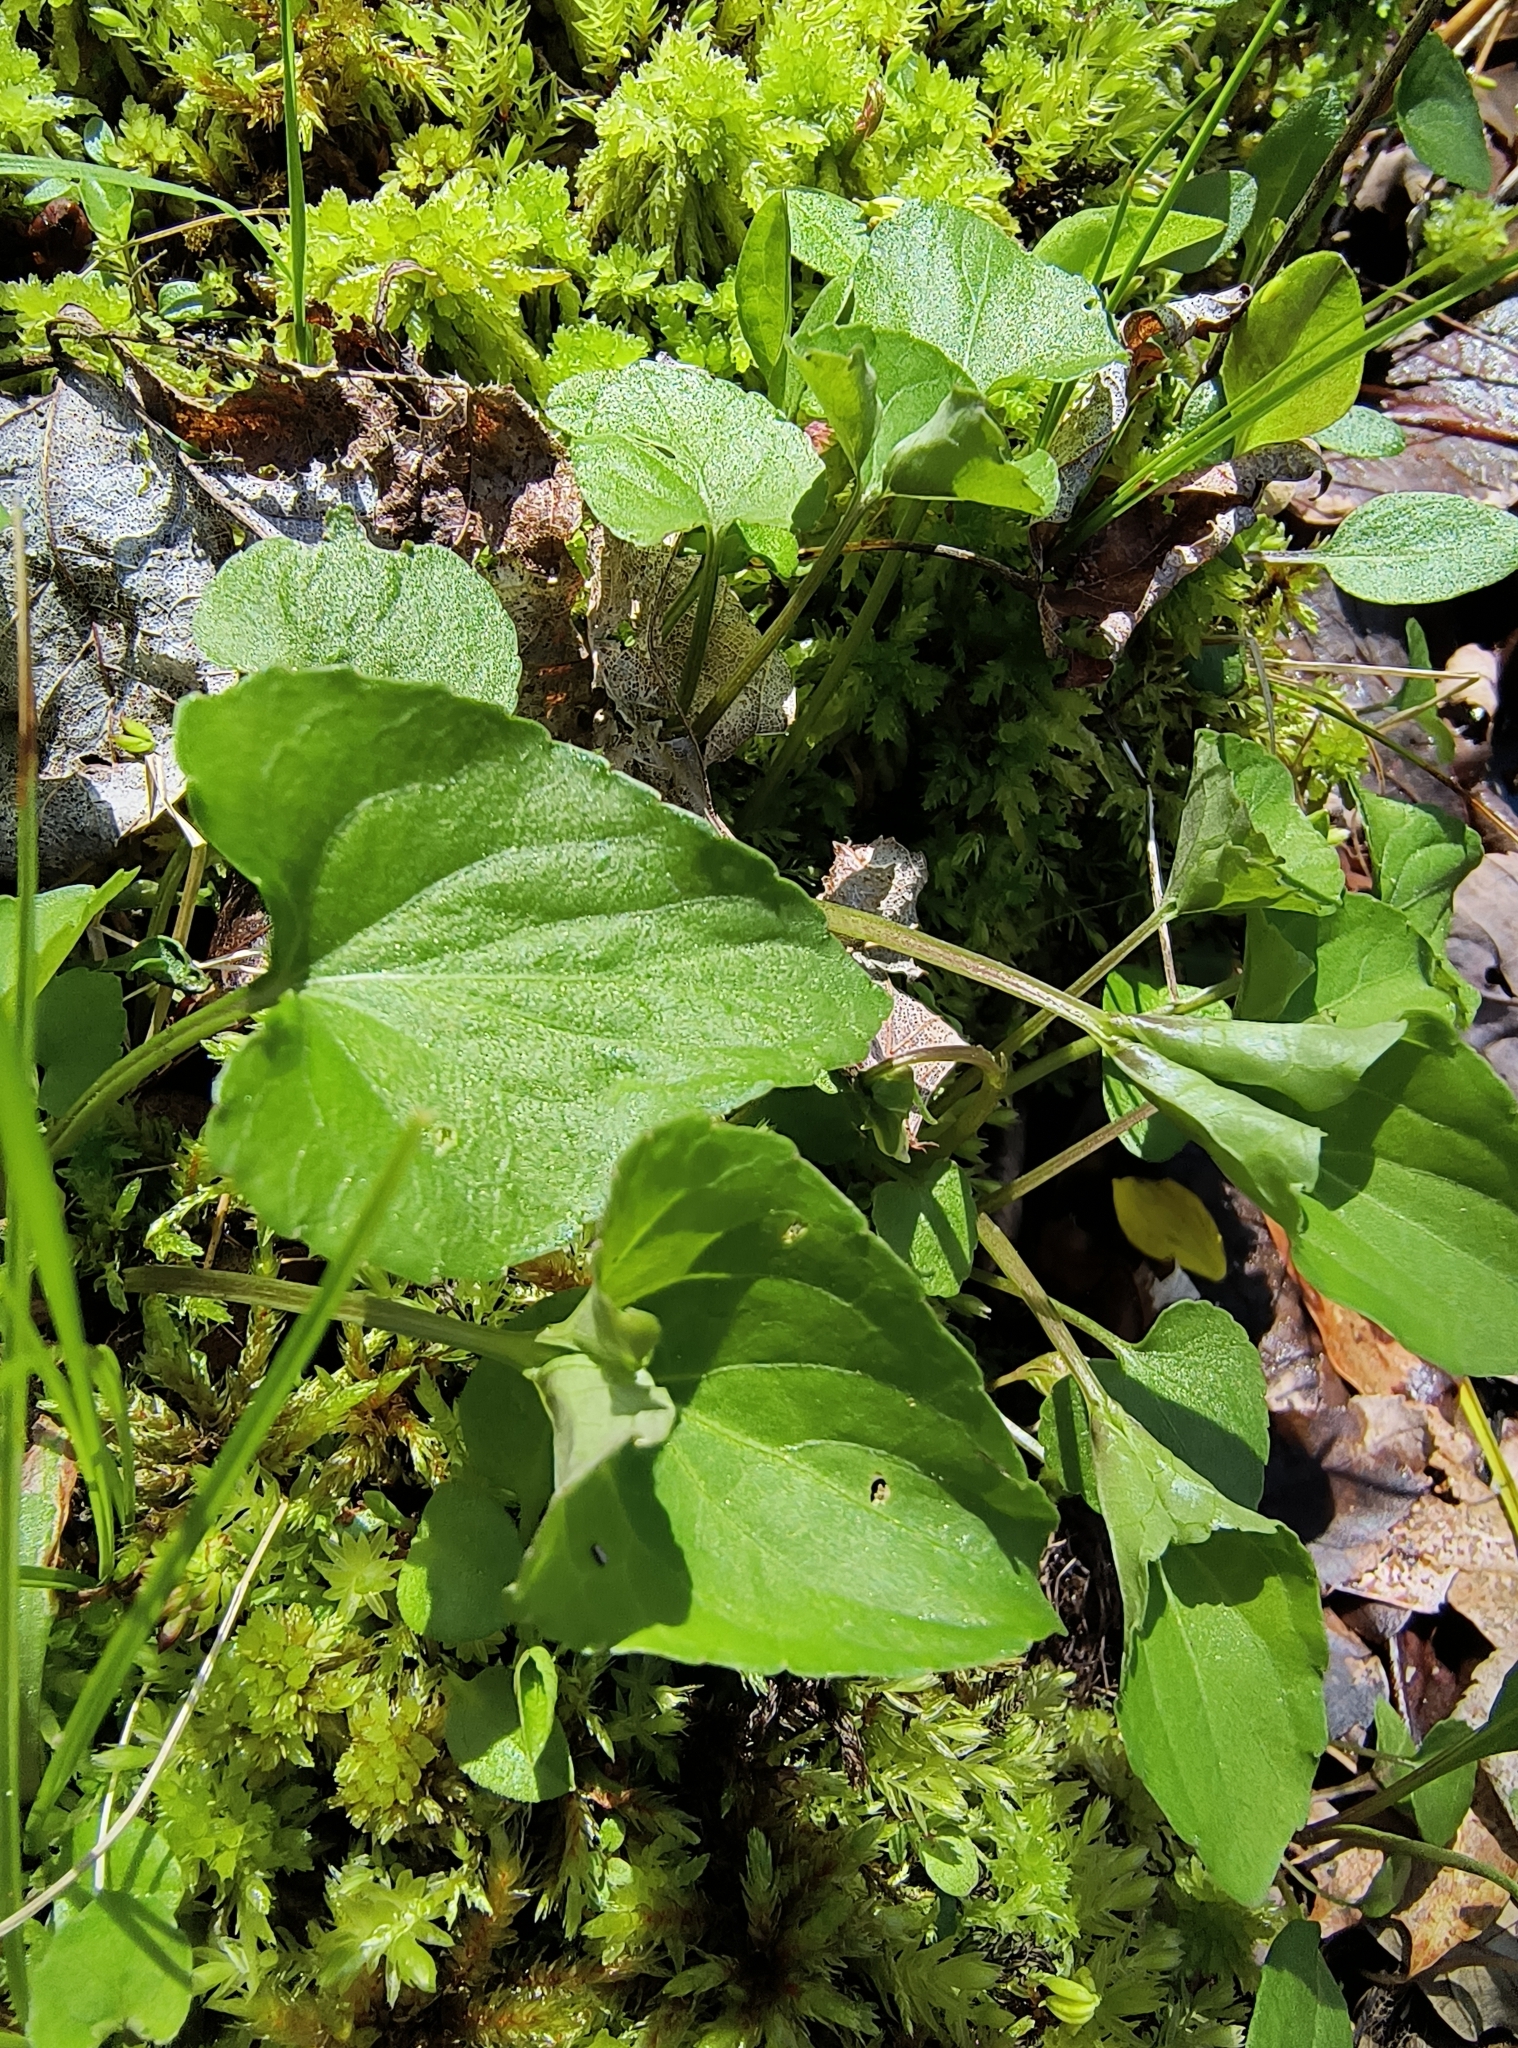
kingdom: Plantae
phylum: Tracheophyta
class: Magnoliopsida
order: Malpighiales
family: Violaceae
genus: Viola
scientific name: Viola cucullata
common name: Marsh blue violet
